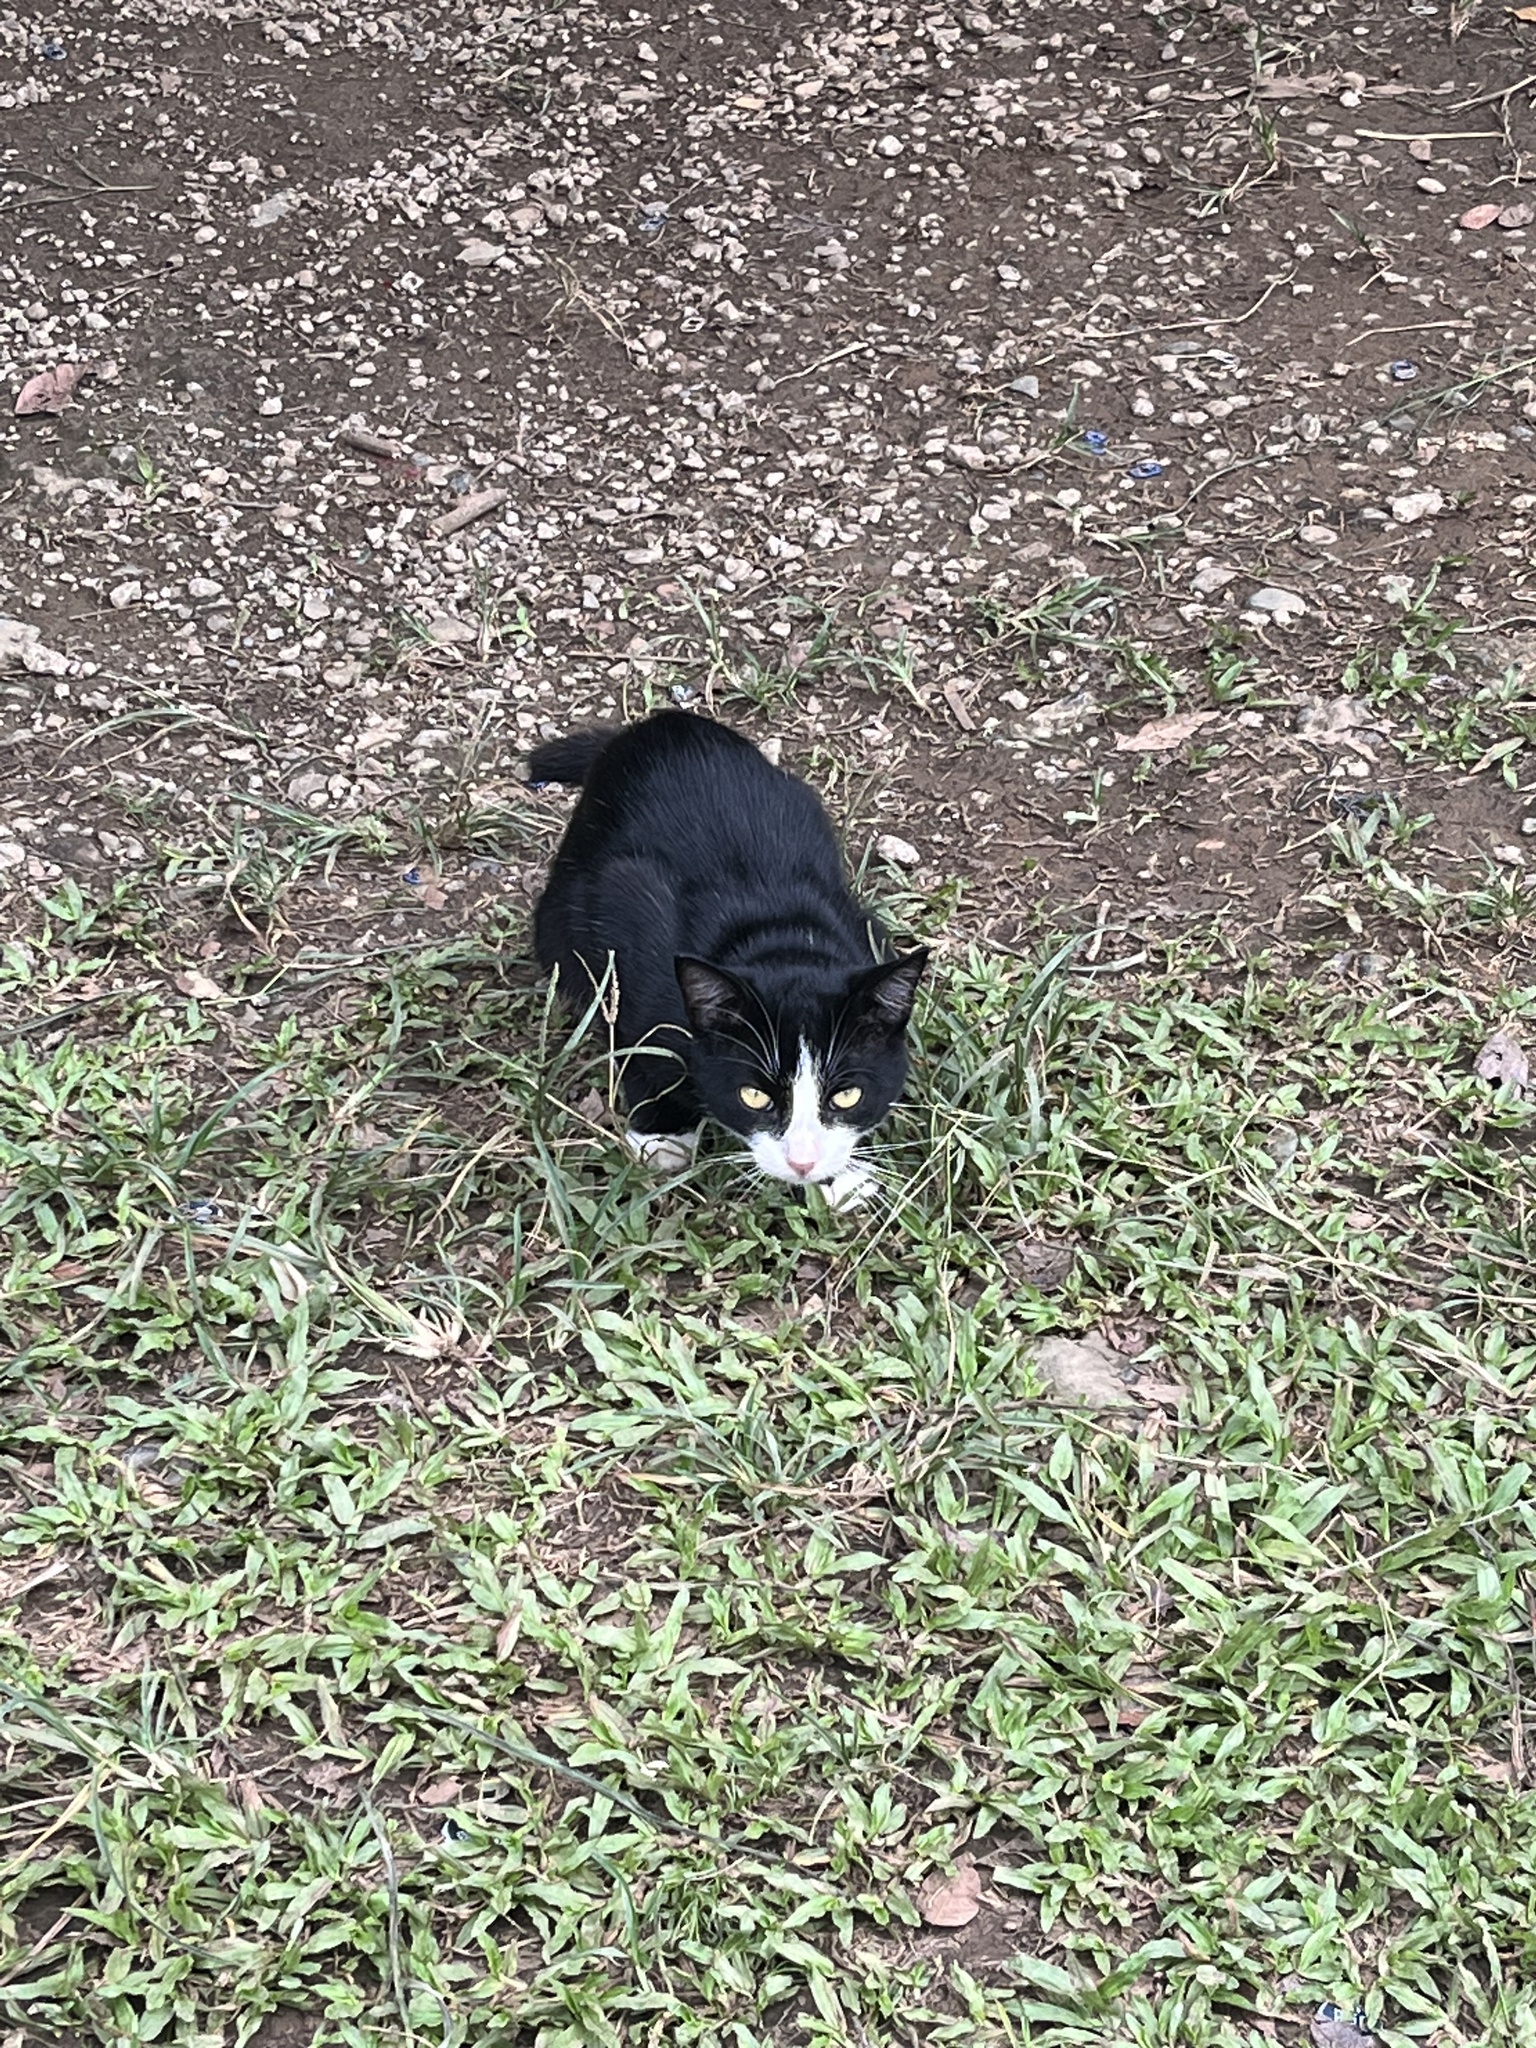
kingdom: Animalia
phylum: Chordata
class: Mammalia
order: Carnivora
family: Felidae
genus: Felis
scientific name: Felis catus
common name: Domestic cat
